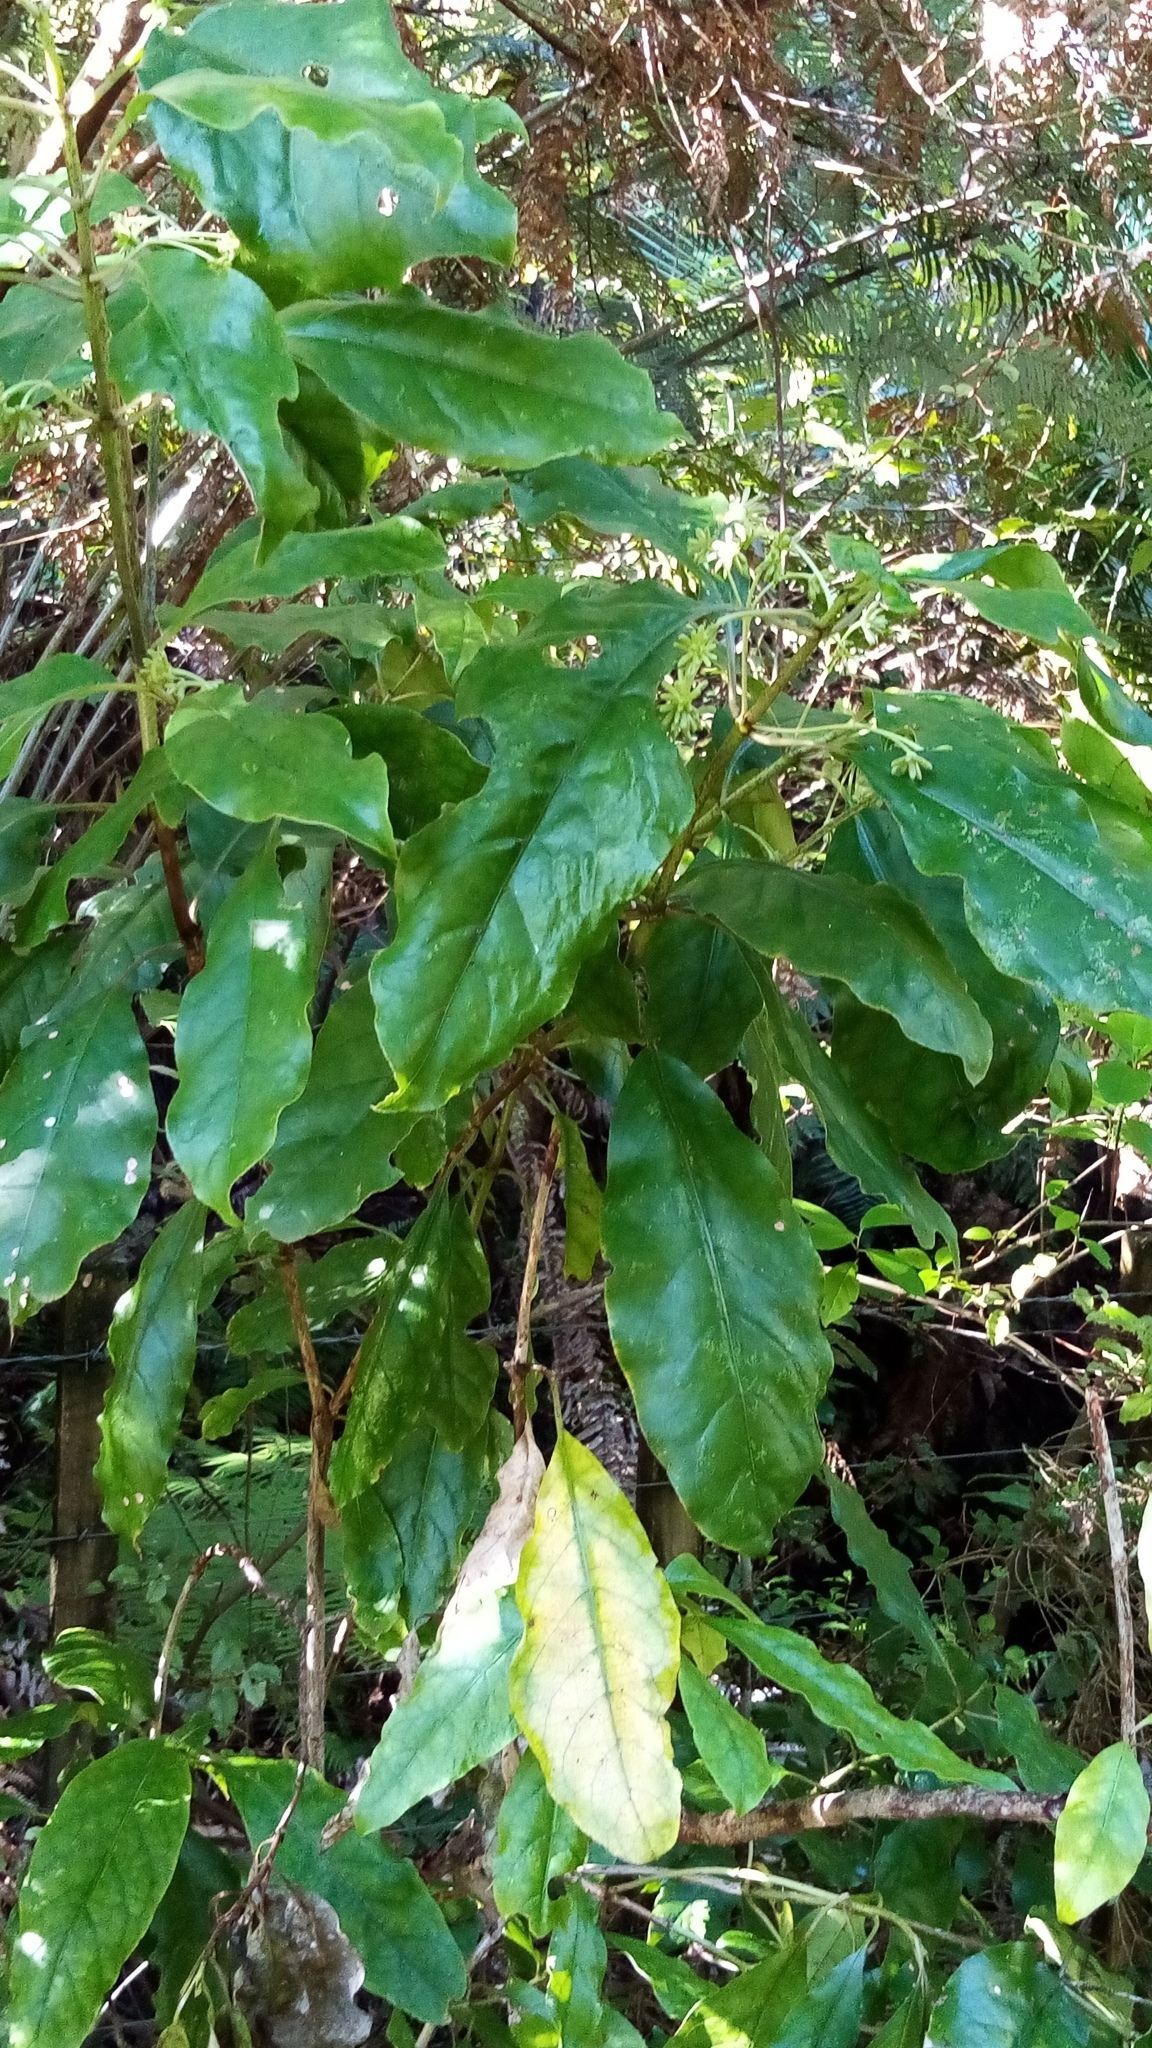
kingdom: Plantae
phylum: Tracheophyta
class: Magnoliopsida
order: Gentianales
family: Rubiaceae
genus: Coprosma
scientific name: Coprosma autumnalis
